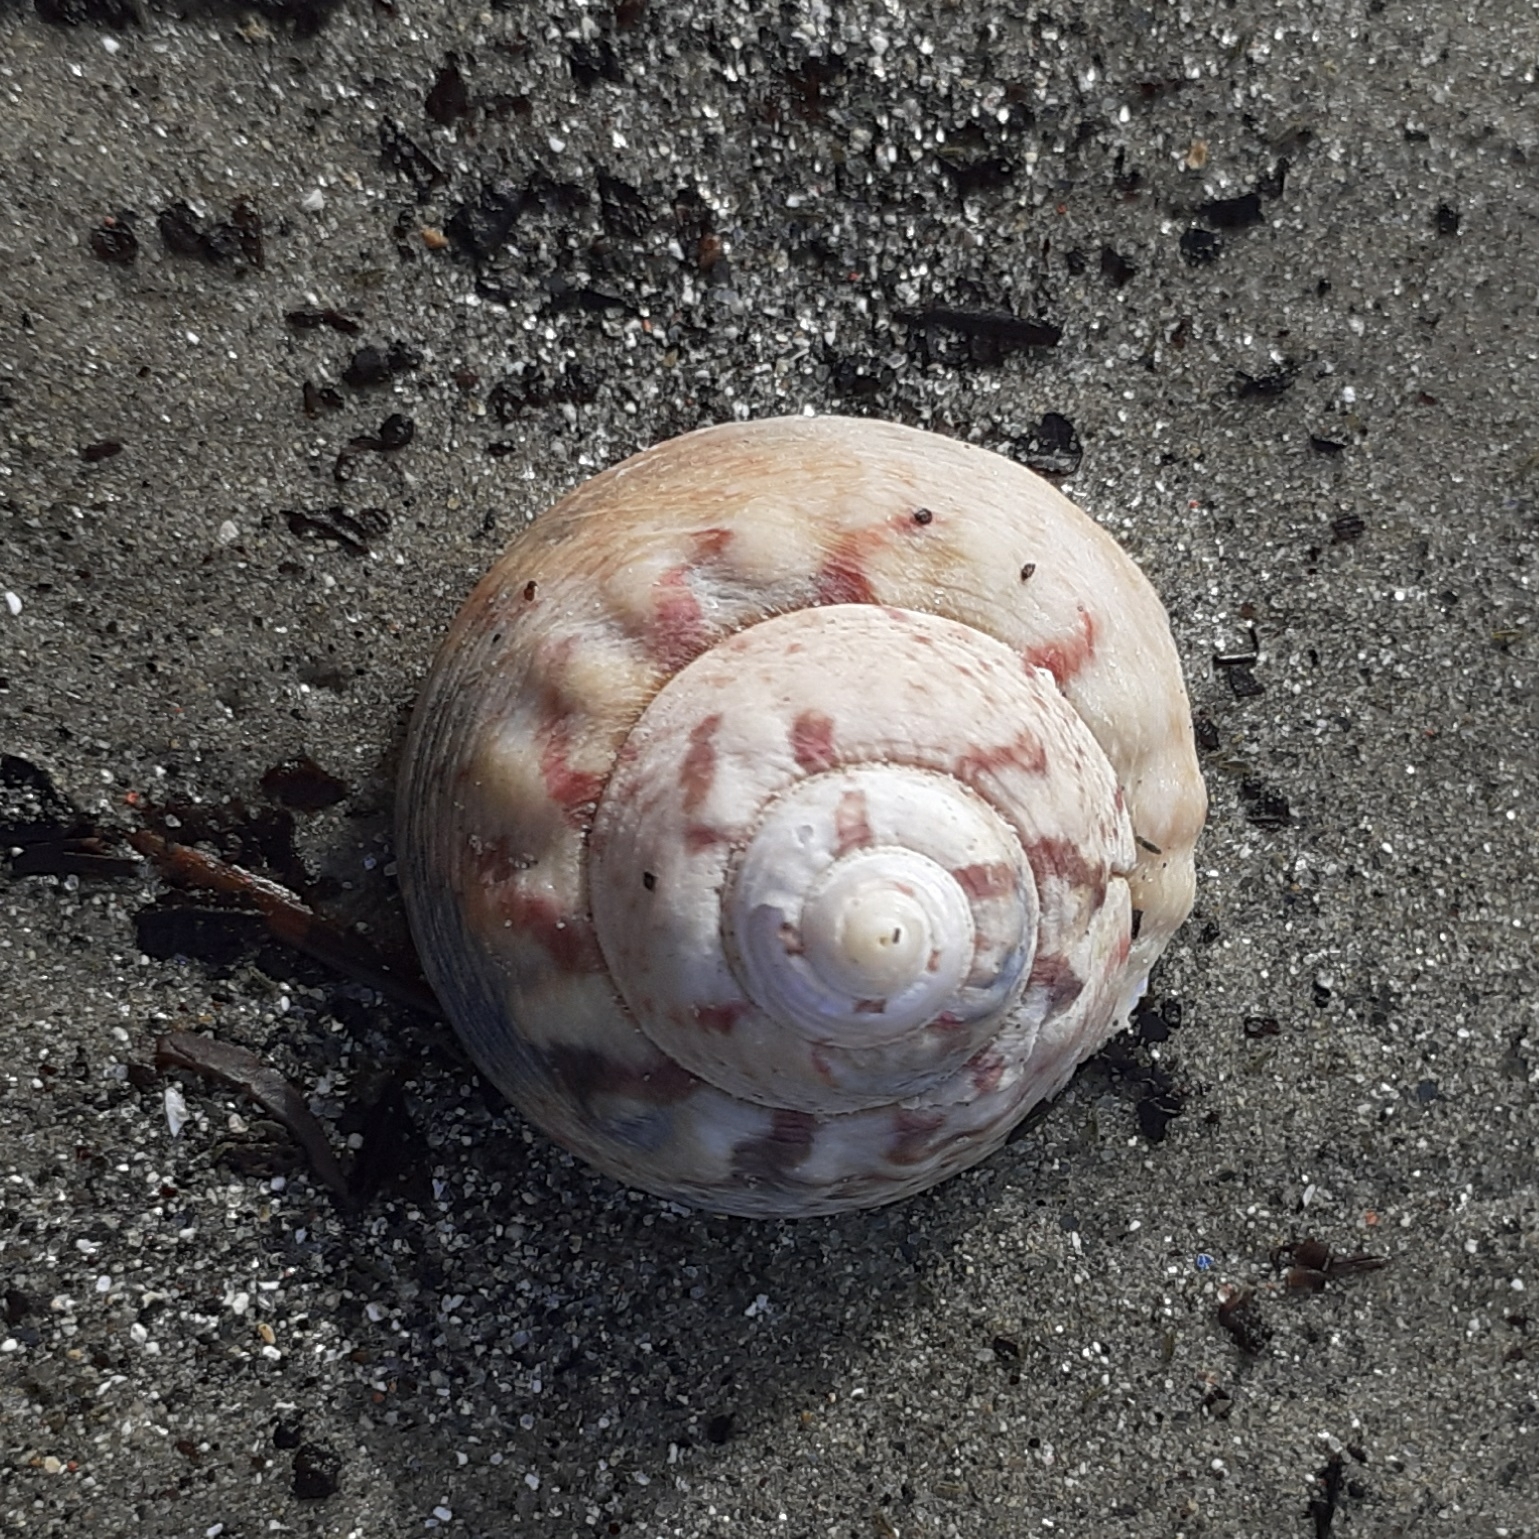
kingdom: Animalia
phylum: Mollusca
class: Gastropoda
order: Trochida
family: Trochidae
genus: Gibbula
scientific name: Gibbula magus
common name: Turban top shell
